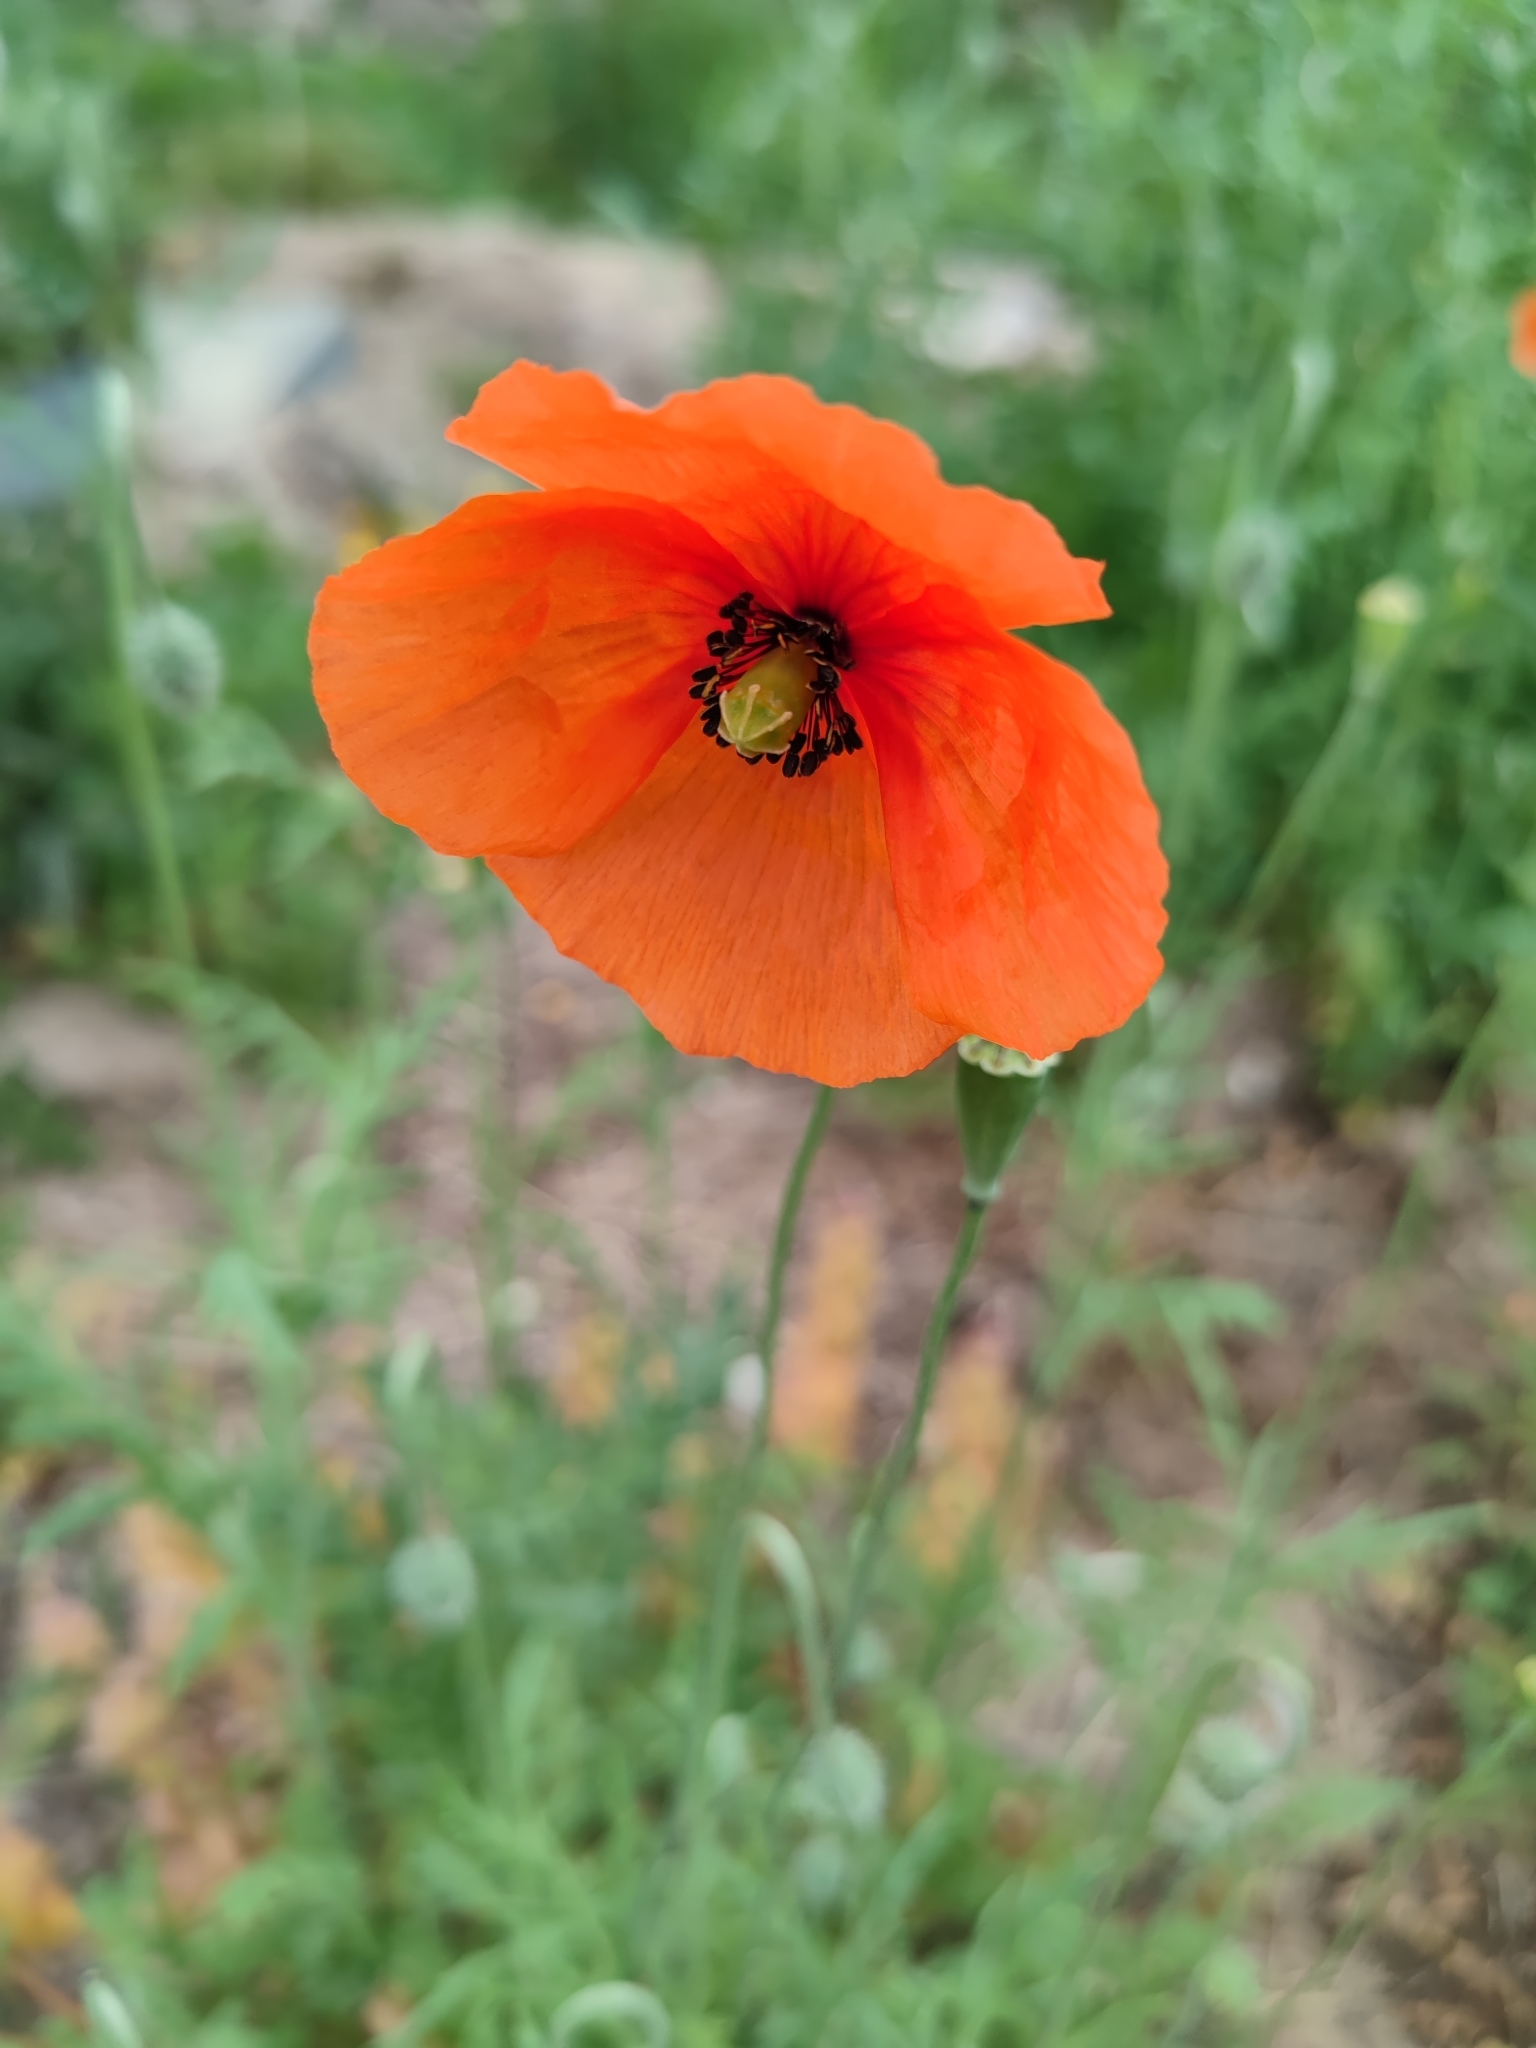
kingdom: Plantae
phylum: Tracheophyta
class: Magnoliopsida
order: Ranunculales
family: Papaveraceae
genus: Papaver
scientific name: Papaver dubium
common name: Long-headed poppy
